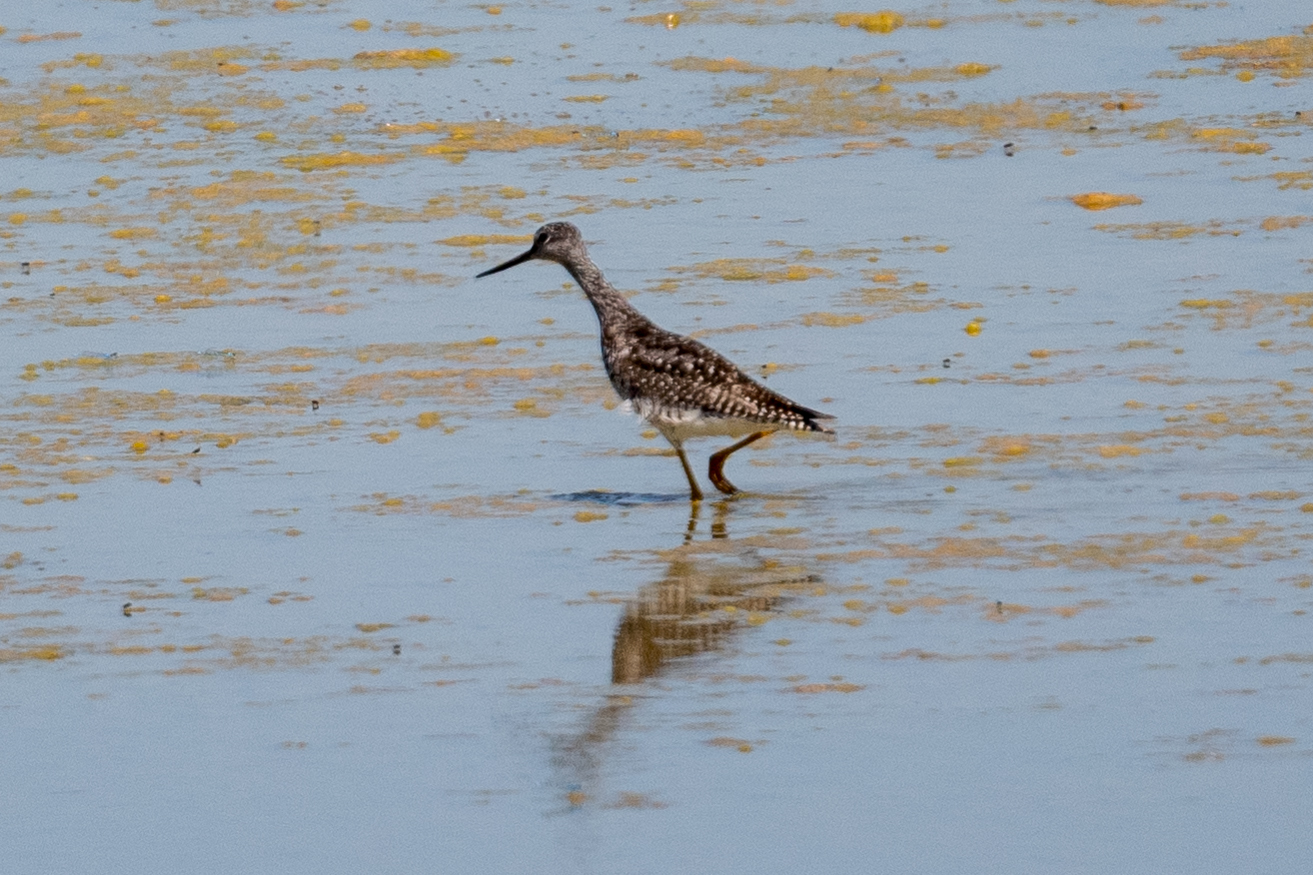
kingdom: Animalia
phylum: Chordata
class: Aves
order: Charadriiformes
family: Scolopacidae
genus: Tringa
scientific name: Tringa melanoleuca
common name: Greater yellowlegs
